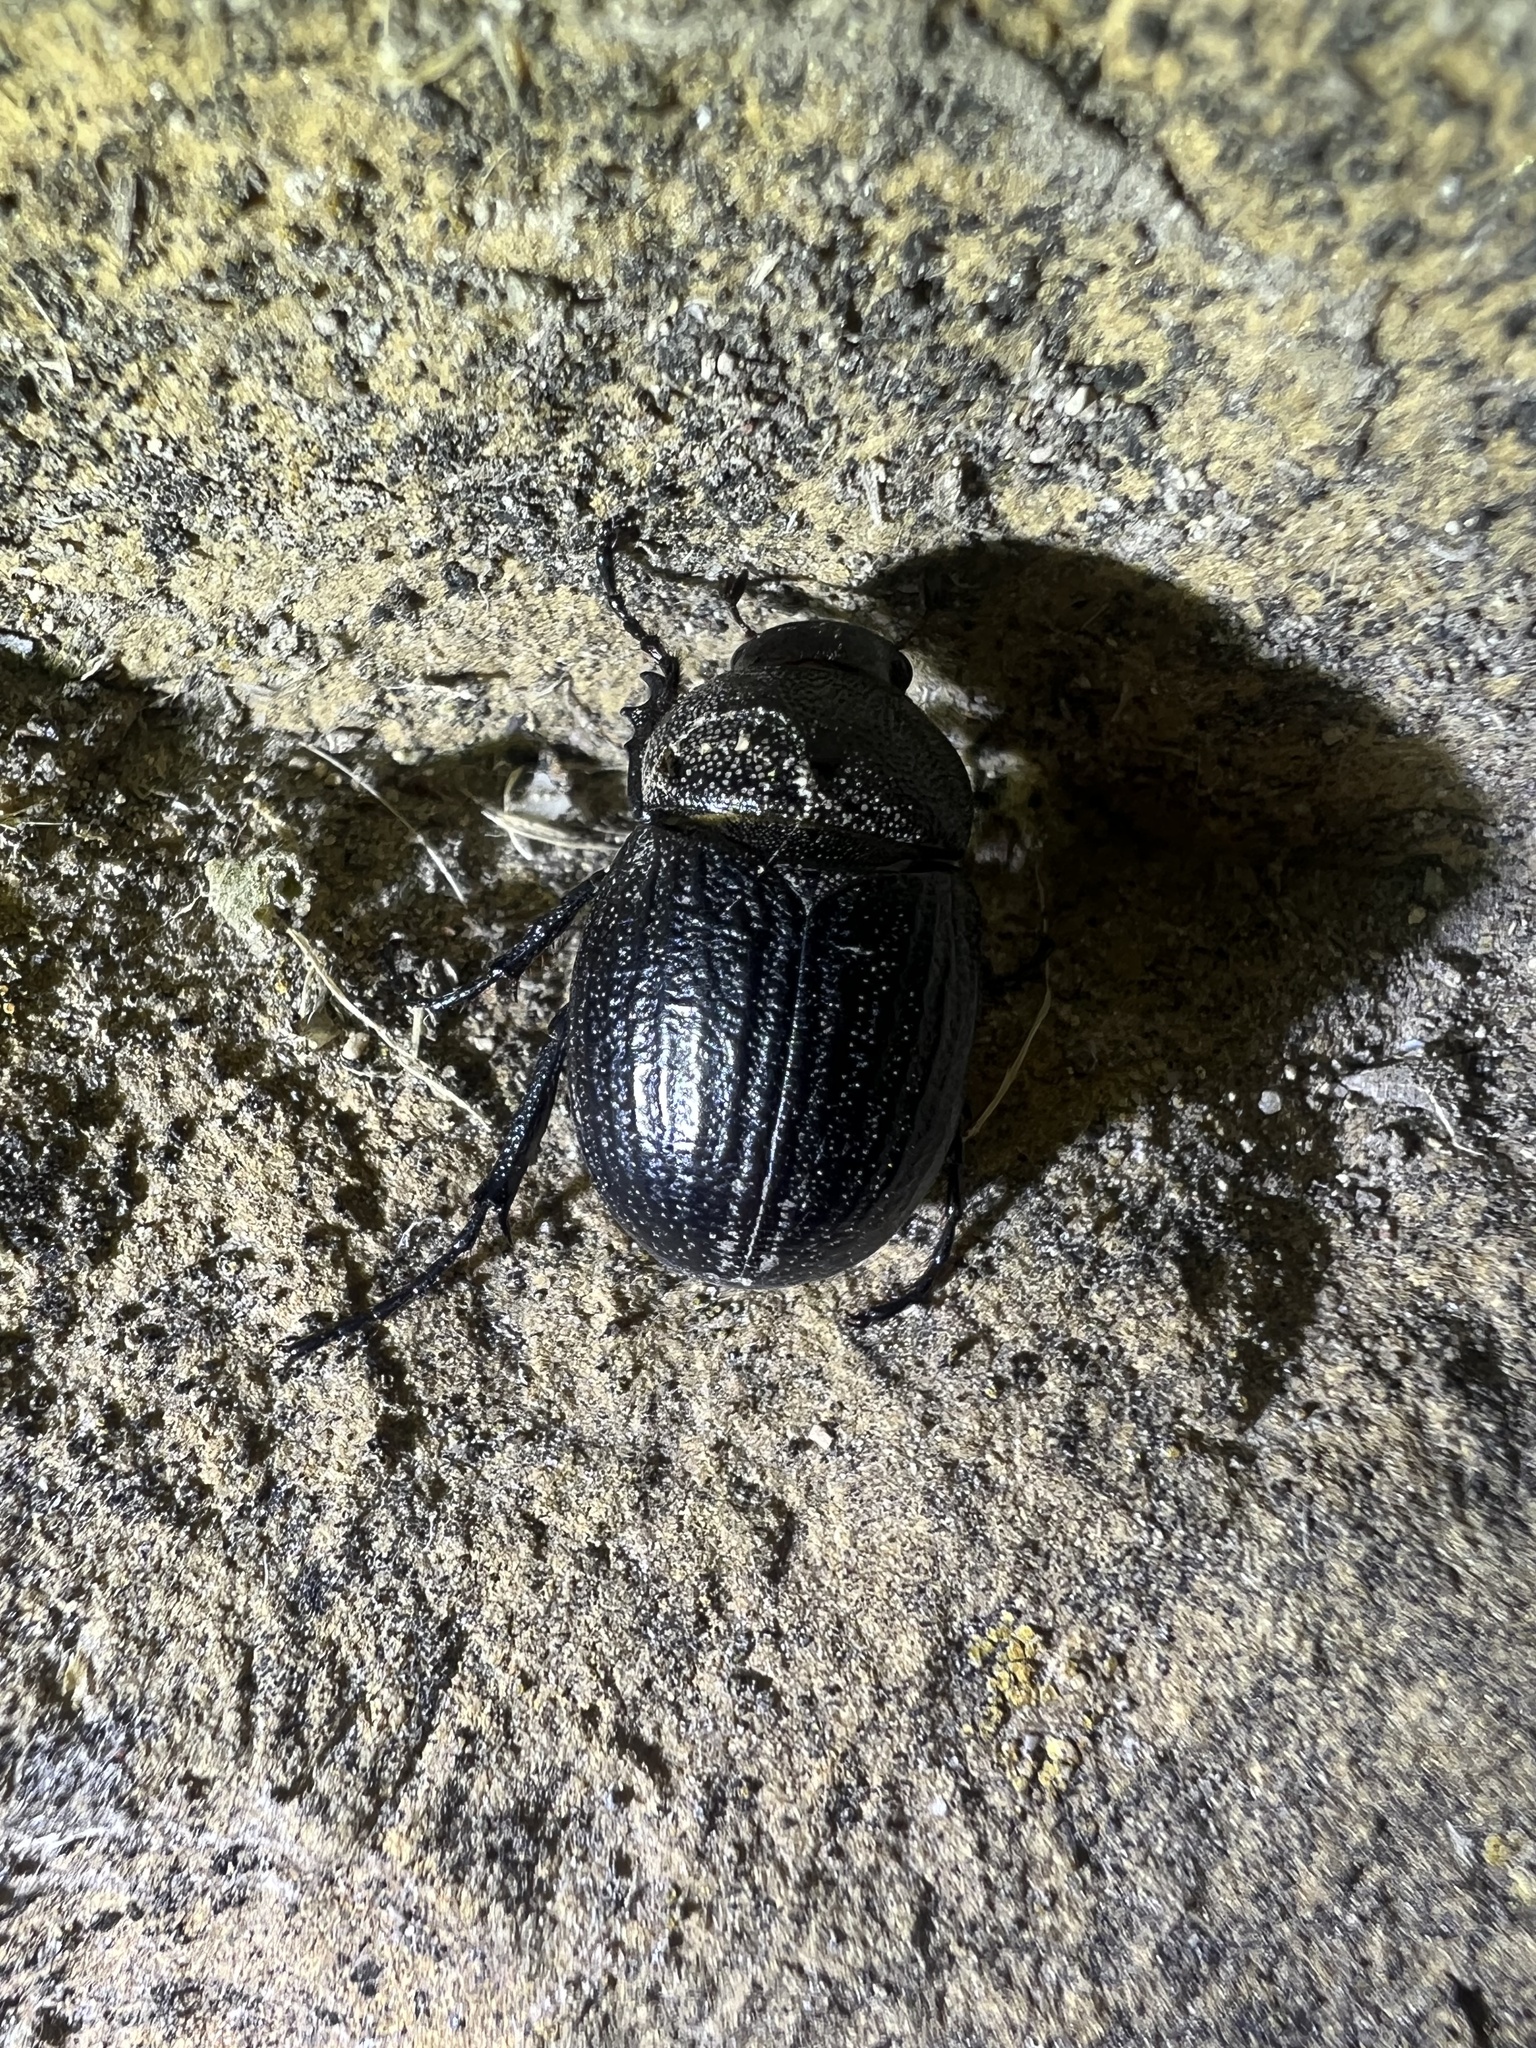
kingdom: Animalia
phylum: Arthropoda
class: Insecta
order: Coleoptera
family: Scarabaeidae
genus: Phyllophaga
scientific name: Phyllophaga cribrosa
